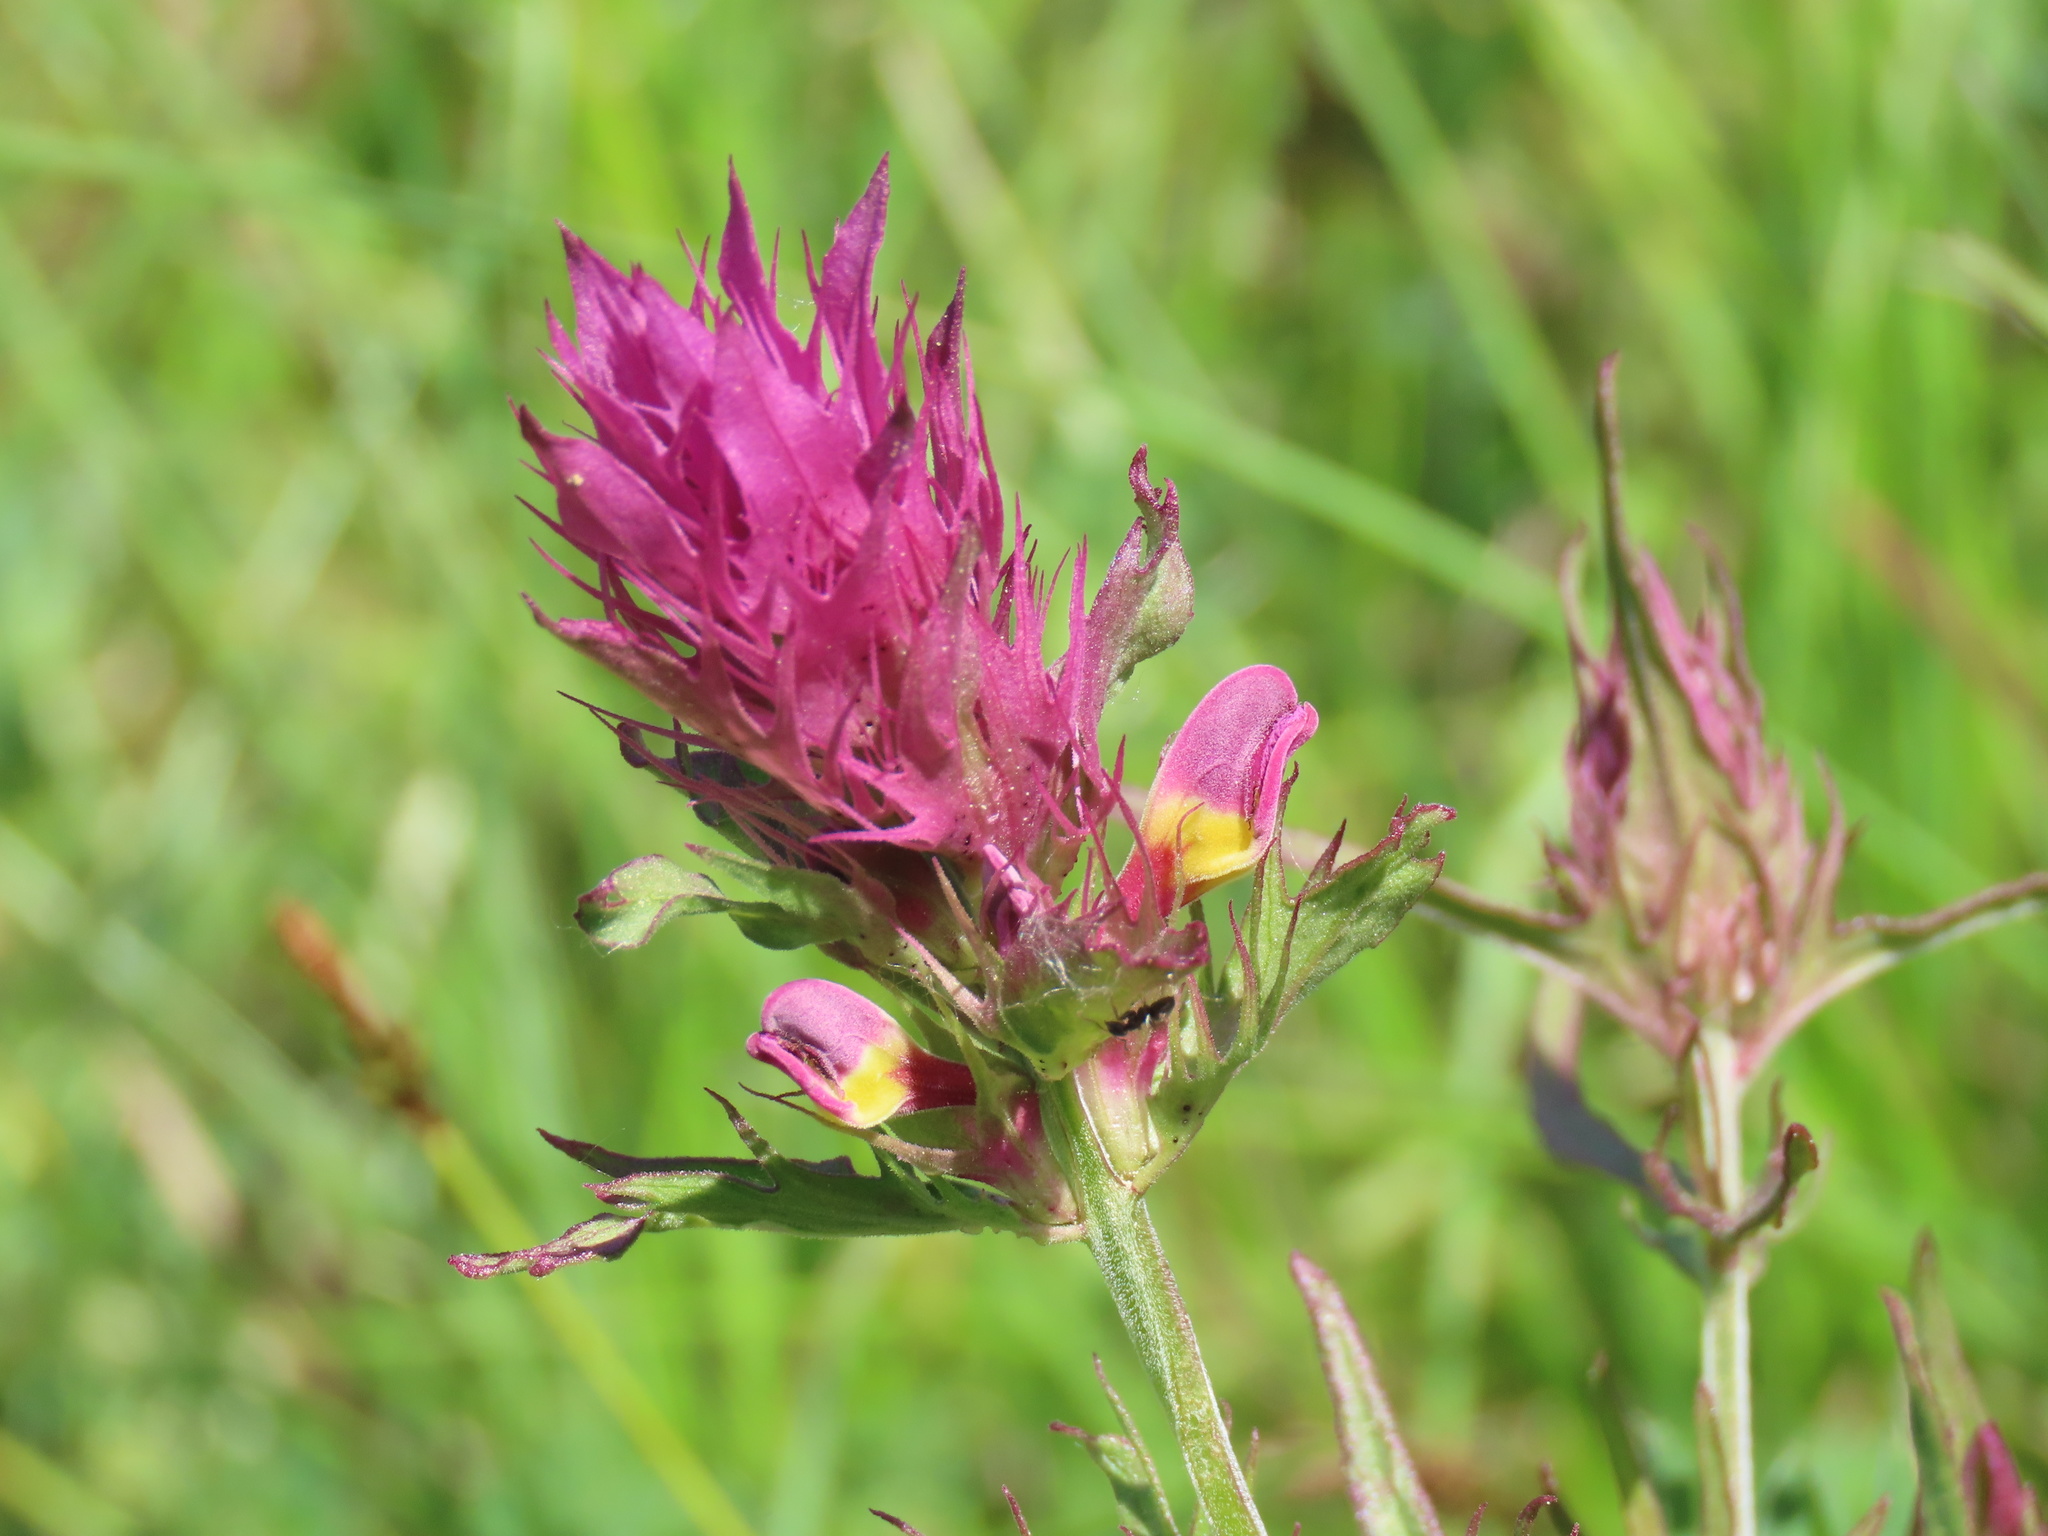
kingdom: Plantae
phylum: Tracheophyta
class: Magnoliopsida
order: Lamiales
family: Orobanchaceae
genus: Melampyrum
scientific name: Melampyrum arvense
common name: Field cow-wheat
